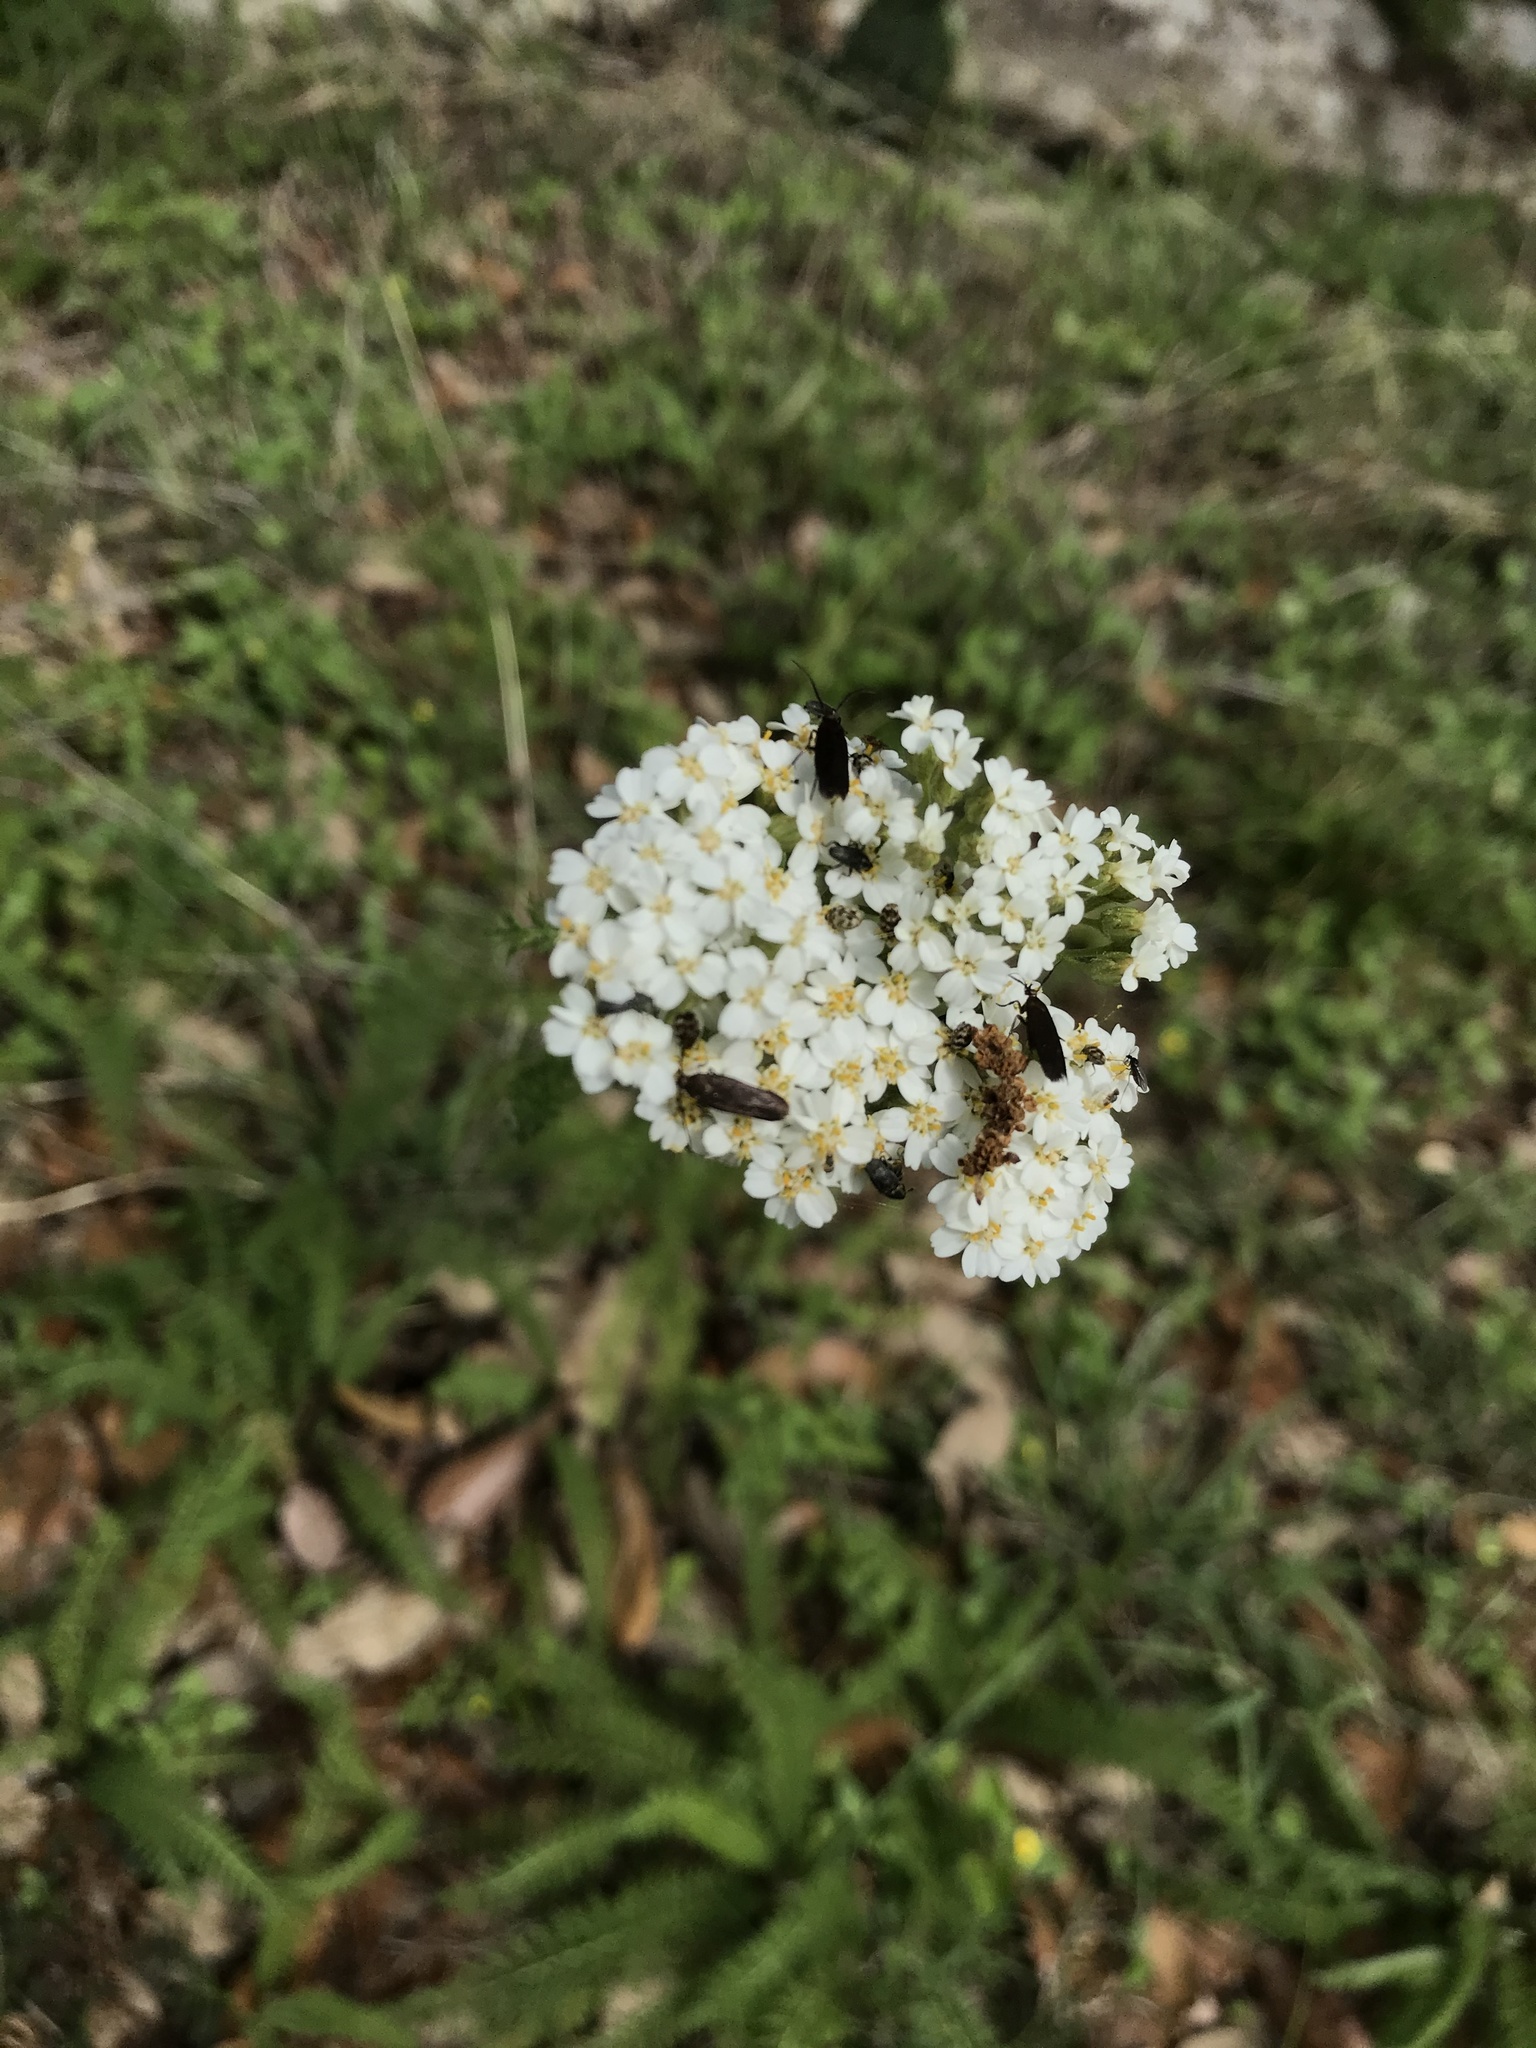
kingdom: Plantae
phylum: Tracheophyta
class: Magnoliopsida
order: Asterales
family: Asteraceae
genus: Achillea
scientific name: Achillea millefolium
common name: Yarrow
